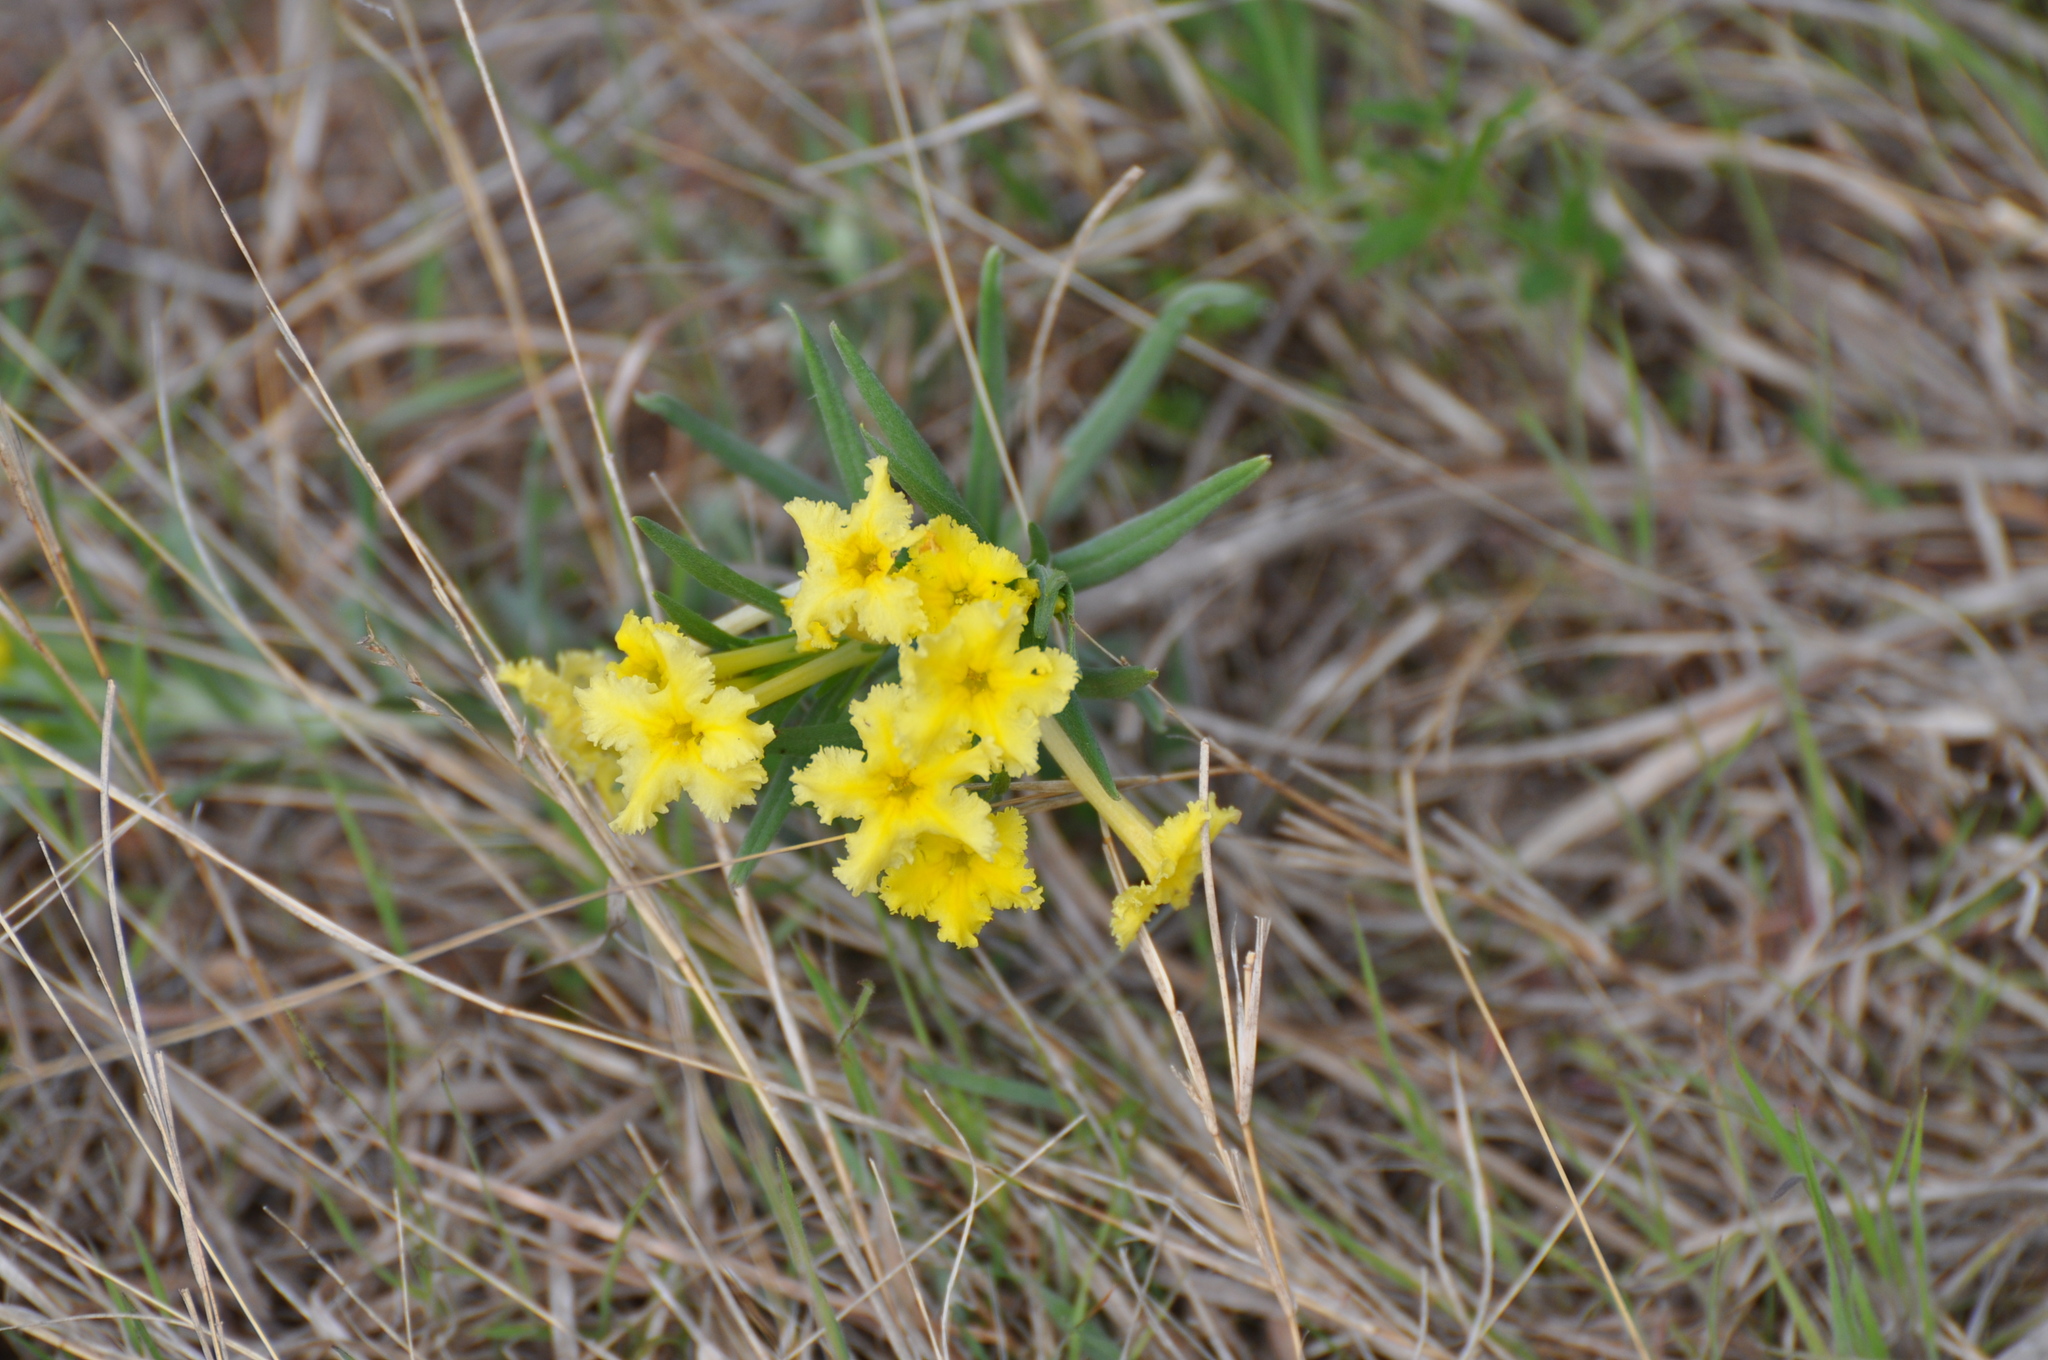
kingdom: Plantae
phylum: Tracheophyta
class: Magnoliopsida
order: Boraginales
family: Boraginaceae
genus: Lithospermum
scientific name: Lithospermum incisum
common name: Fringed gromwell
